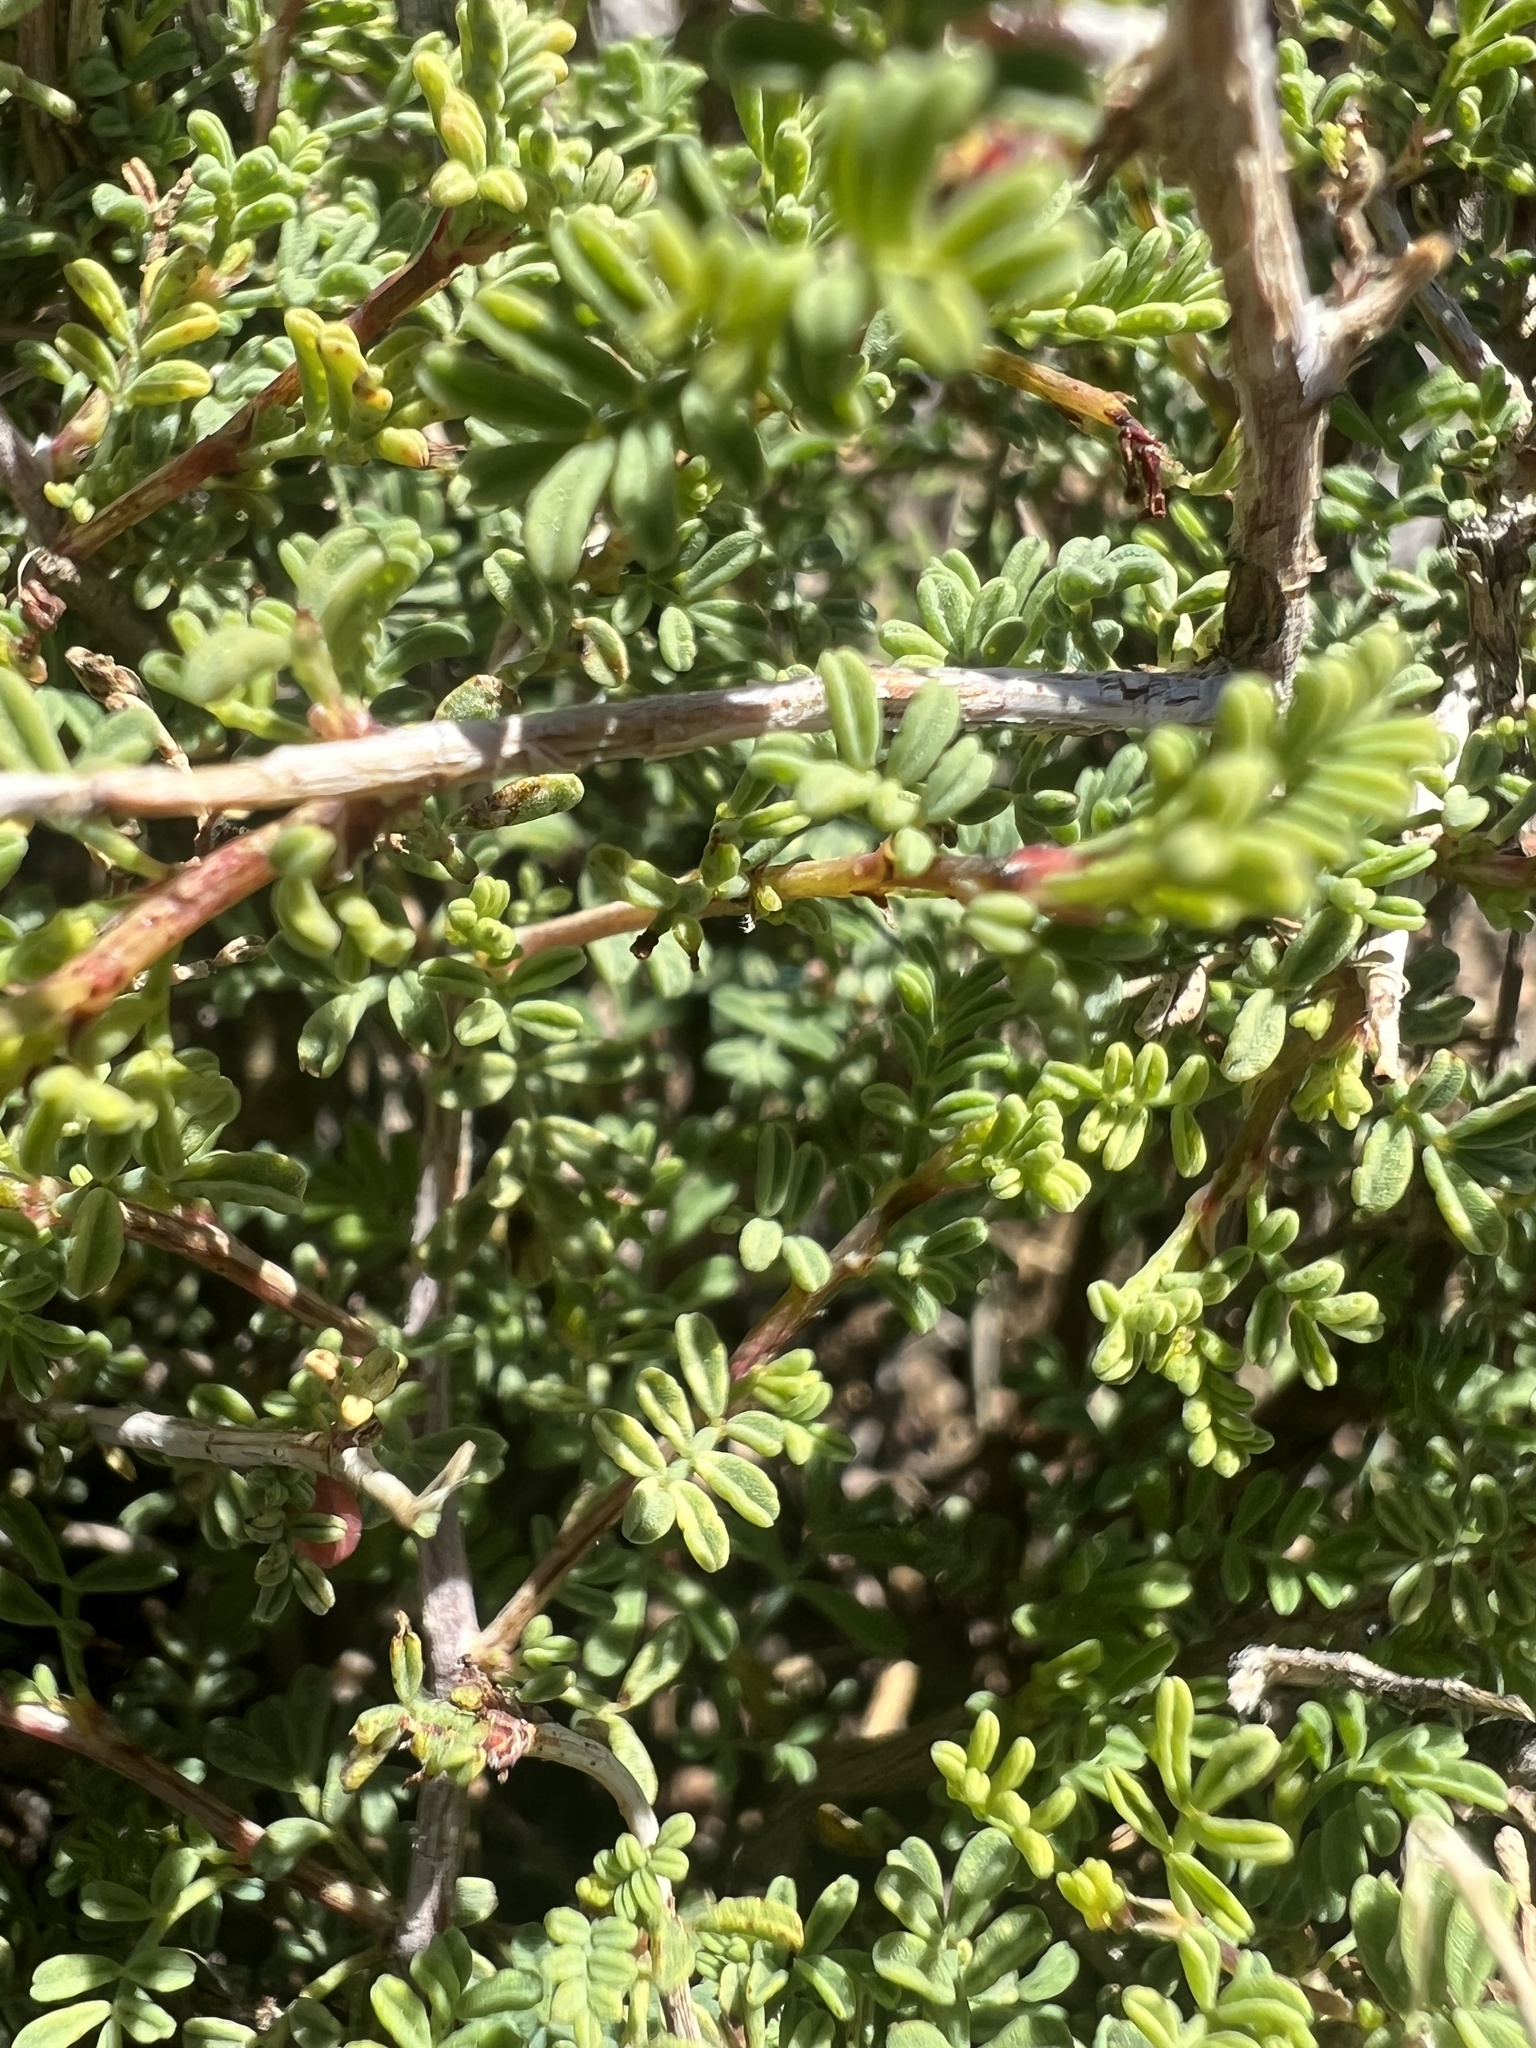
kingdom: Plantae
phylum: Tracheophyta
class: Magnoliopsida
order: Fabales
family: Fabaceae
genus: Dalea
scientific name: Dalea formosa
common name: Feather-plume dalea
